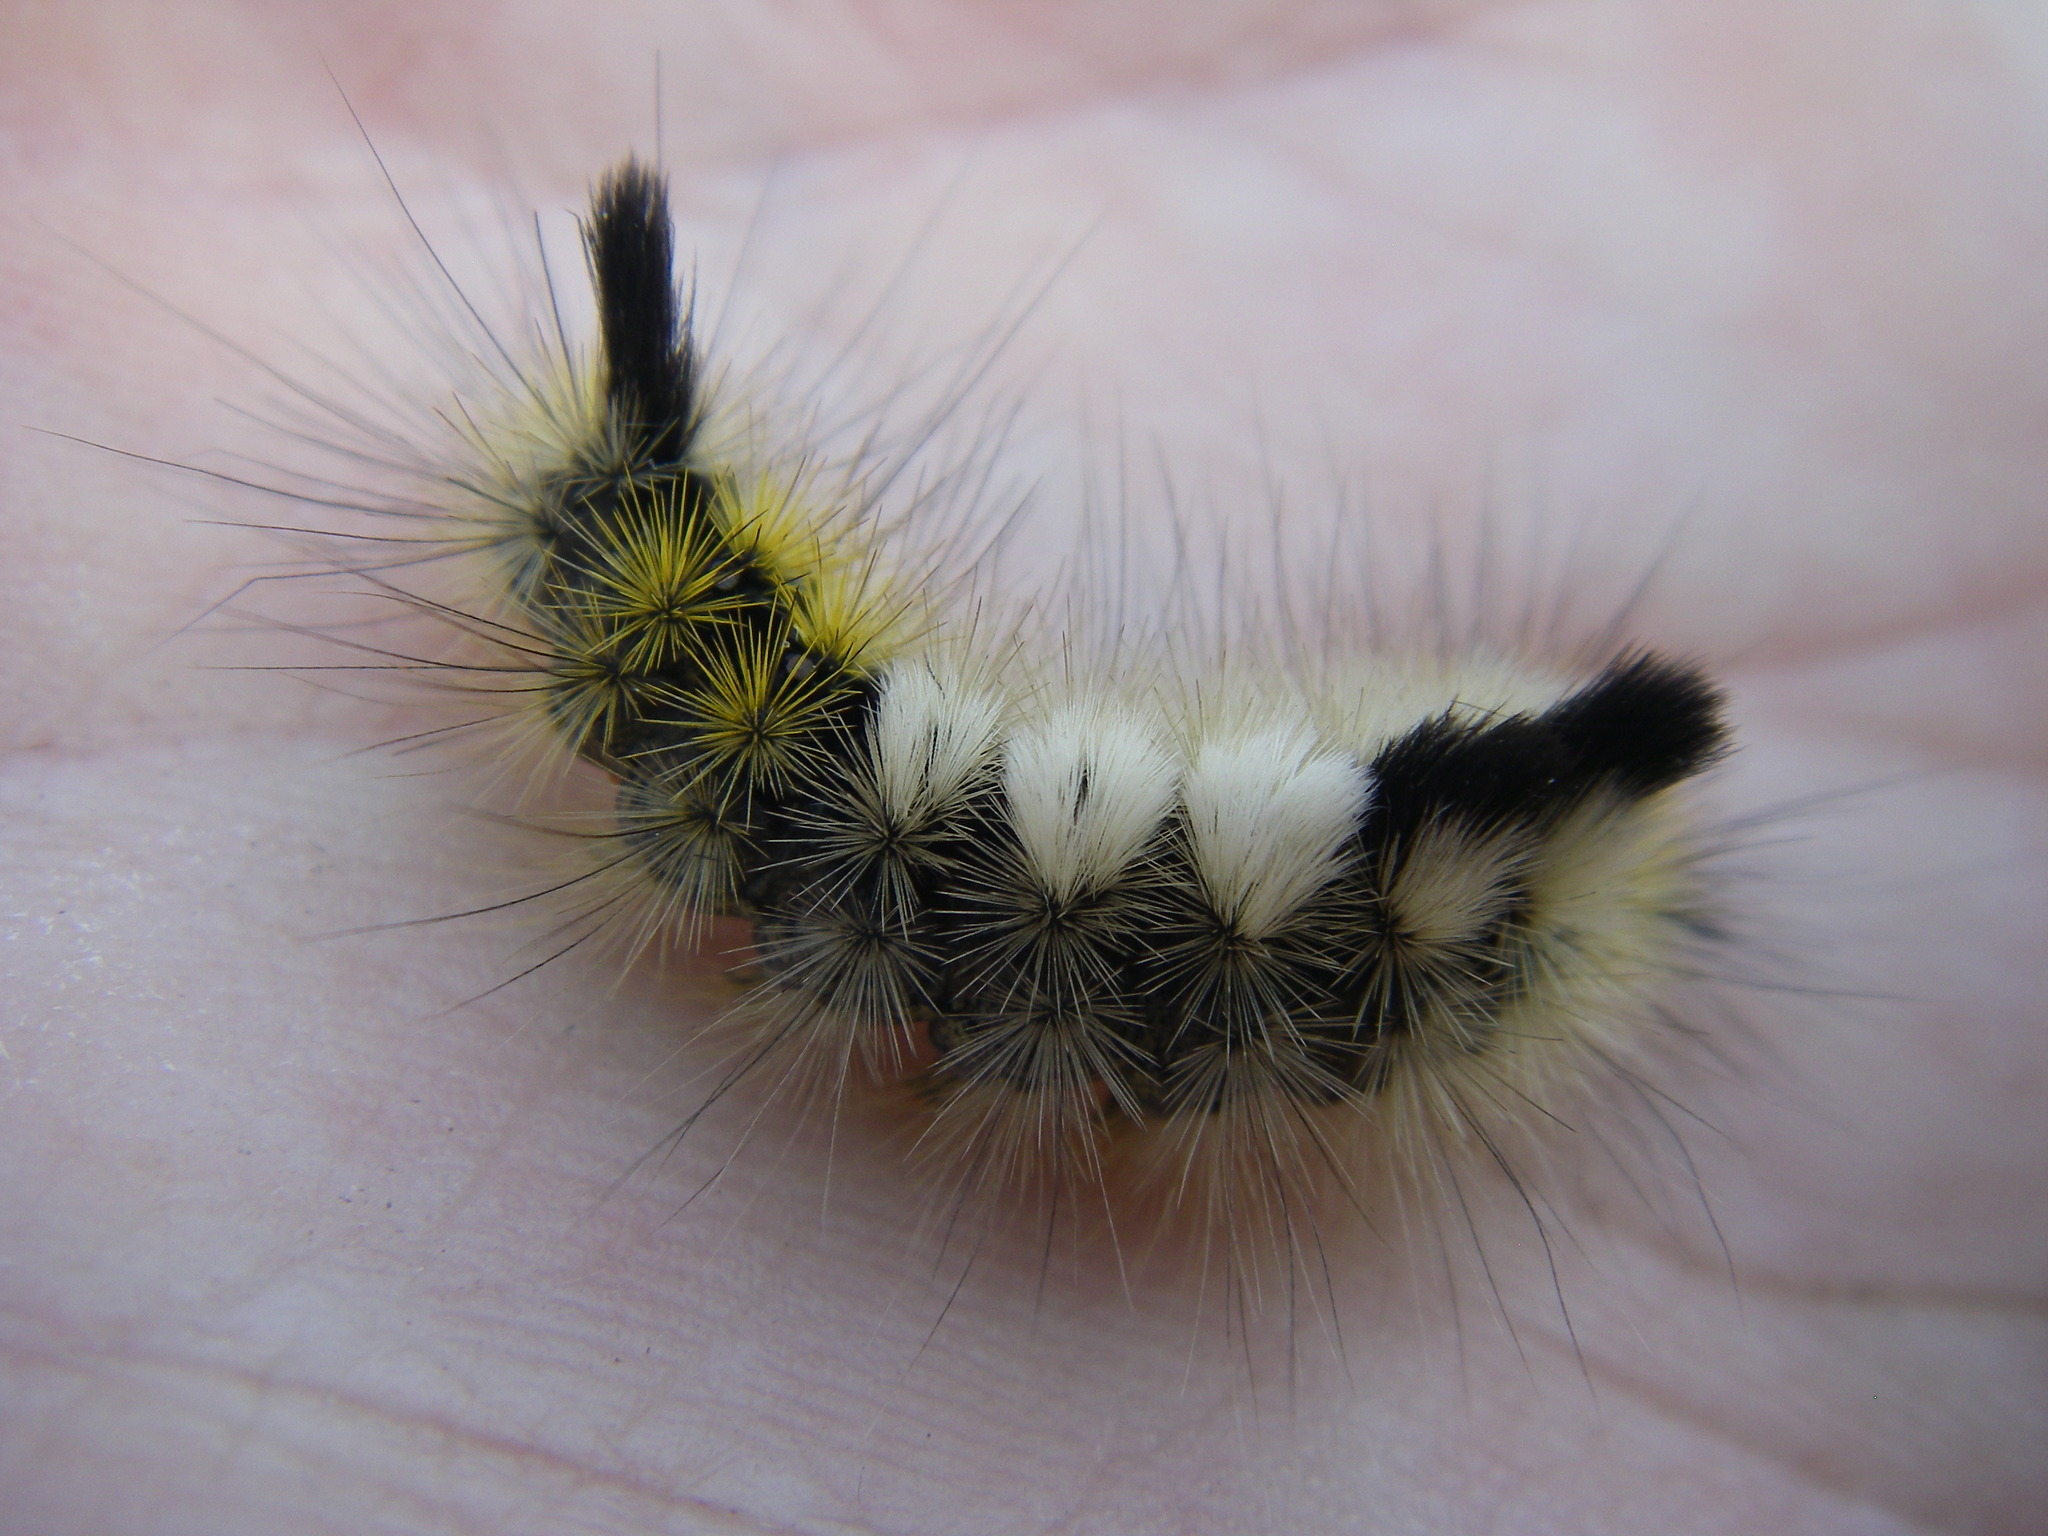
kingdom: Animalia
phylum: Arthropoda
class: Insecta
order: Lepidoptera
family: Erebidae
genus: Calliteara
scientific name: Calliteara Dicallomera fascelina
